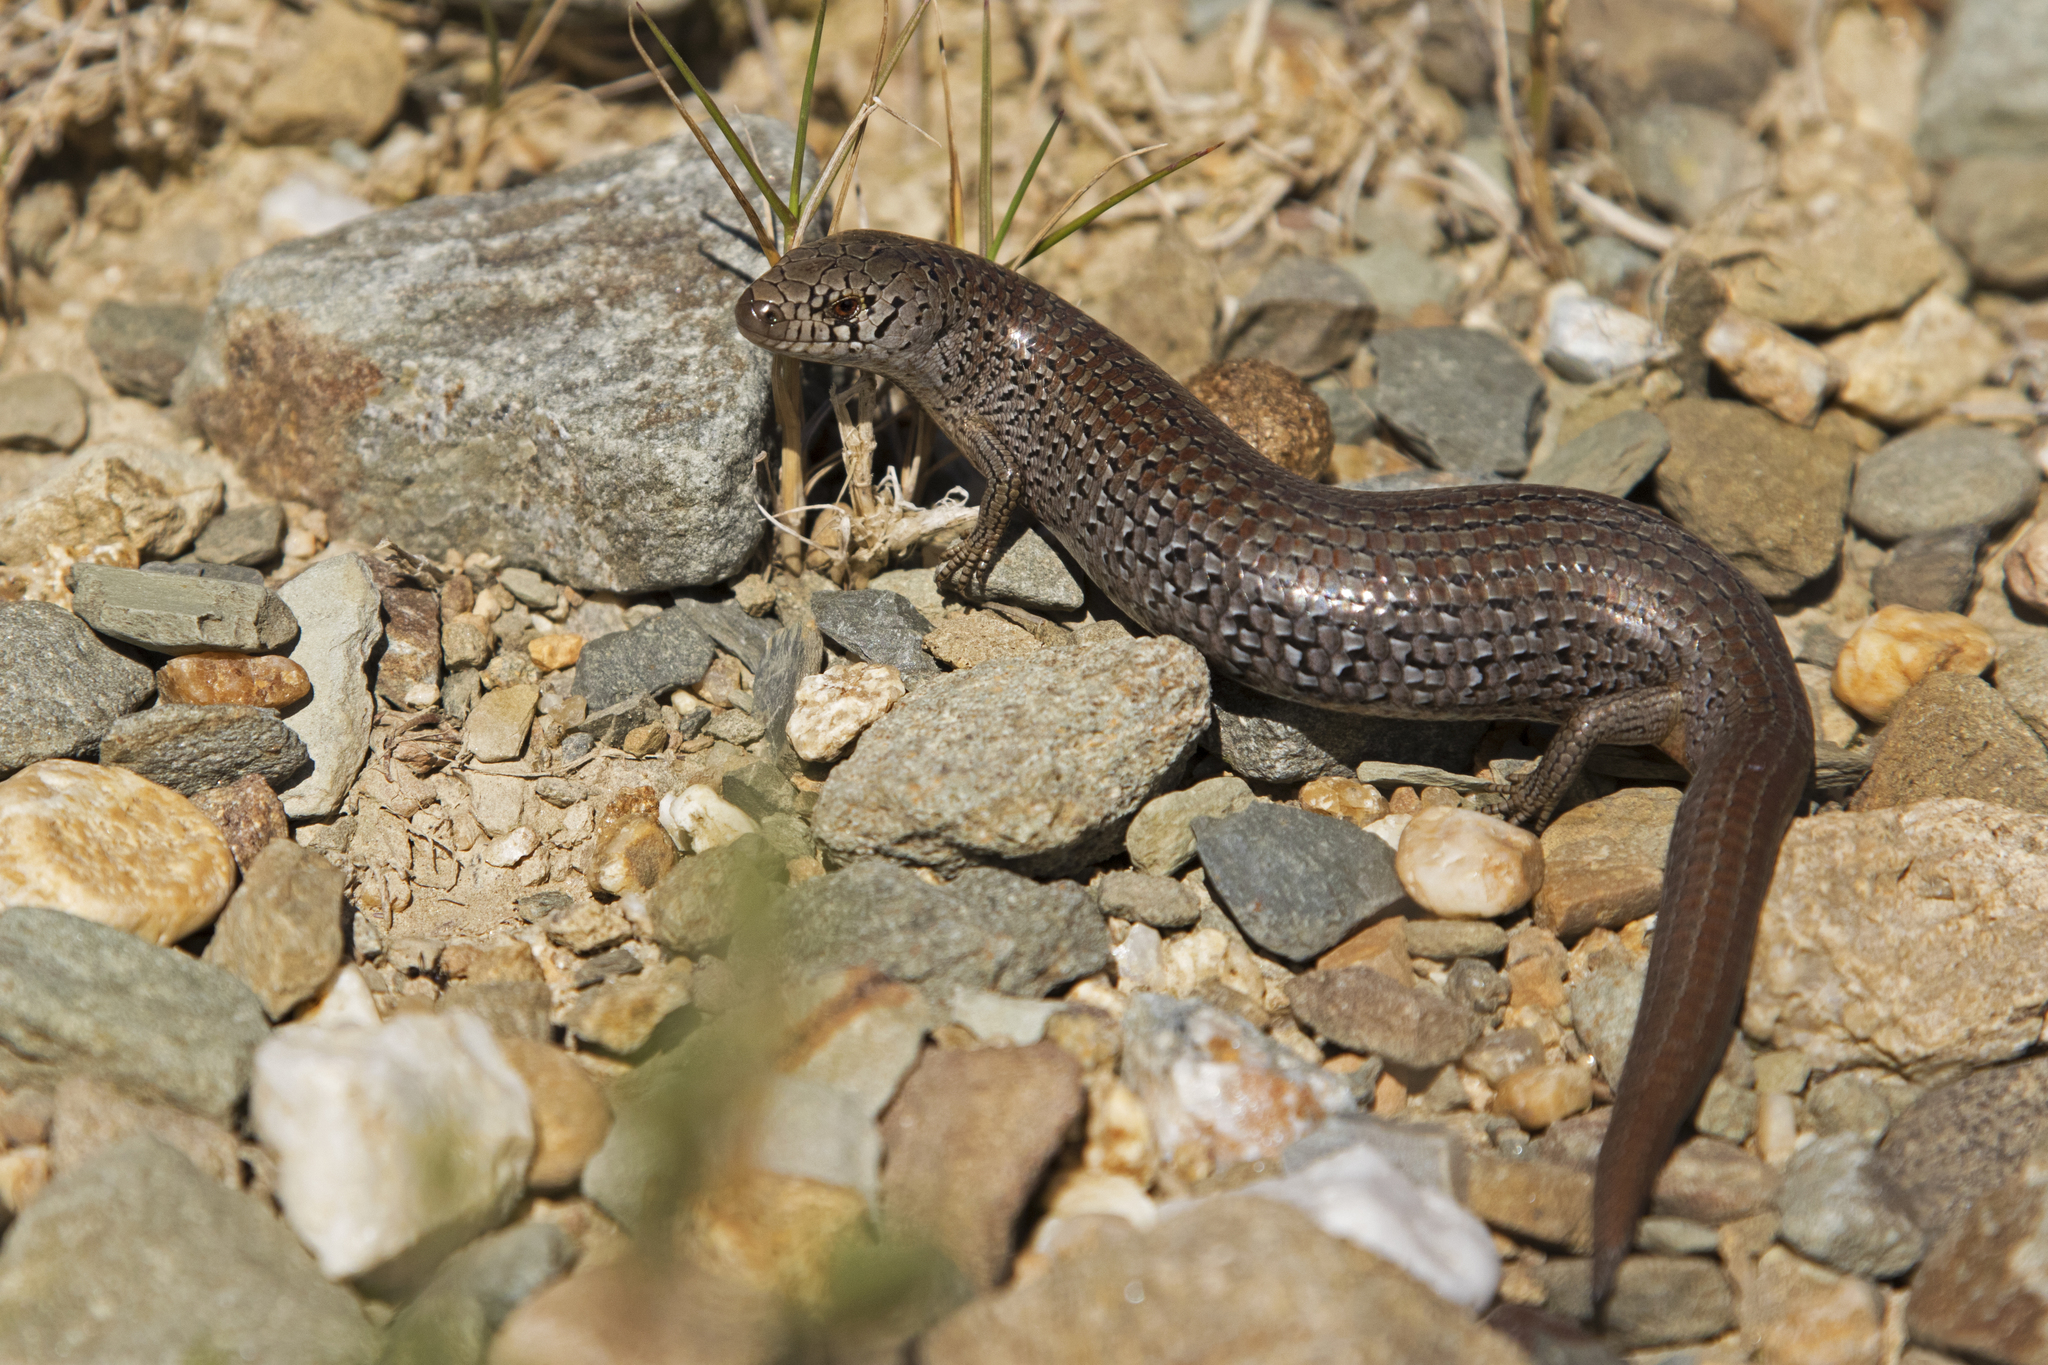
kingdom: Animalia
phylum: Chordata
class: Squamata
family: Scincidae
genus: Cyclodomorphus
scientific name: Cyclodomorphus praealtus
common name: Alpine she-oak skink
